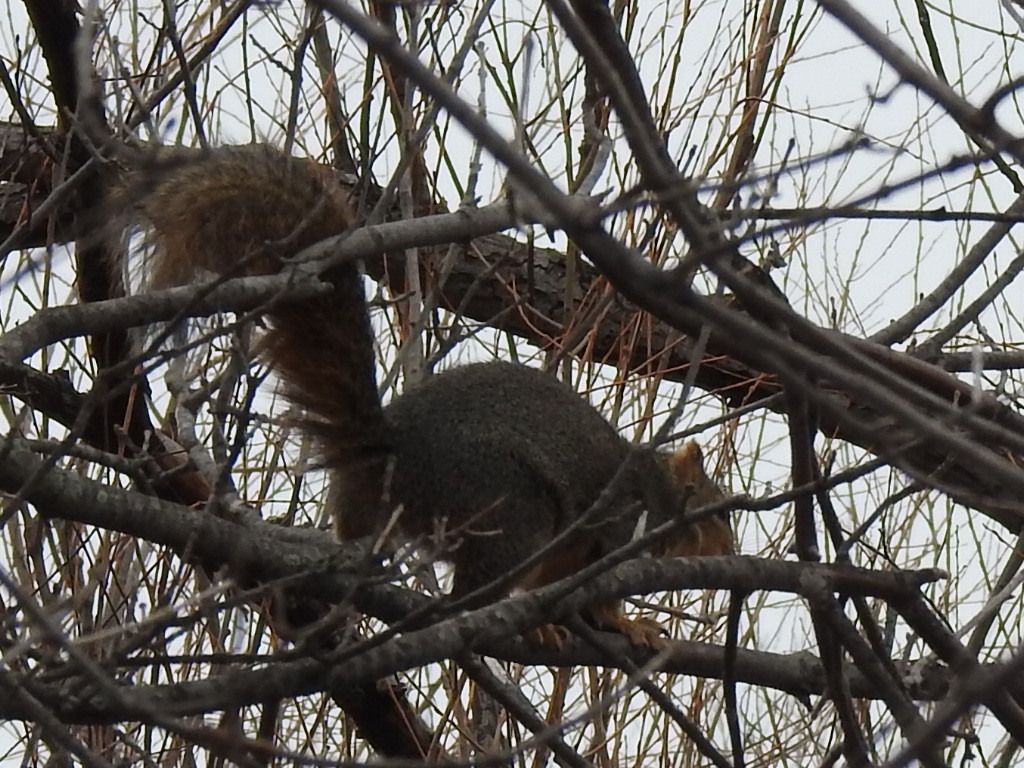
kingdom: Animalia
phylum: Chordata
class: Mammalia
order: Rodentia
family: Sciuridae
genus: Sciurus
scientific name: Sciurus niger
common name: Fox squirrel
